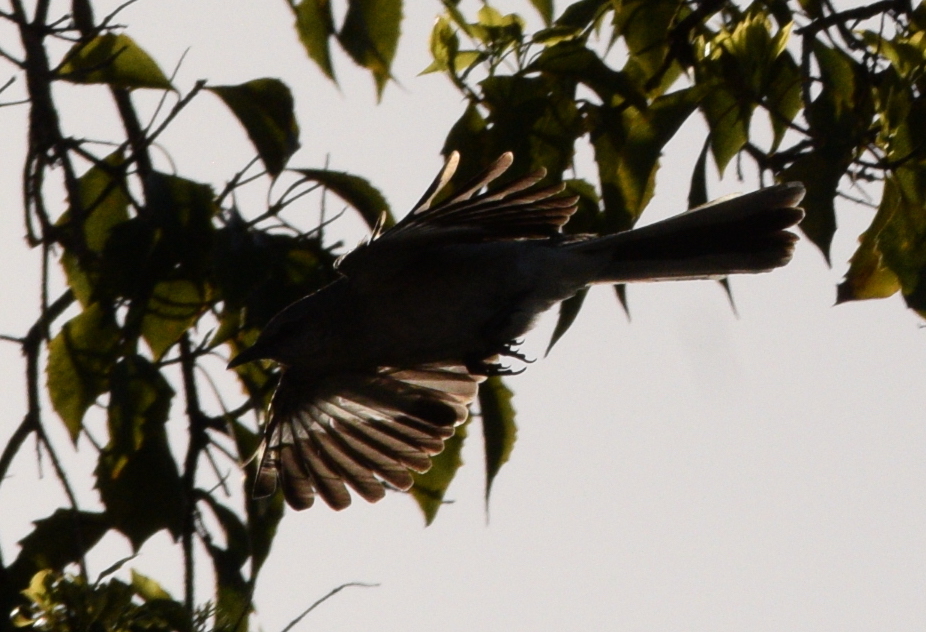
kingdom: Animalia
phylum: Chordata
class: Aves
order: Passeriformes
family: Mimidae
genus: Mimus
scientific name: Mimus polyglottos
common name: Northern mockingbird
